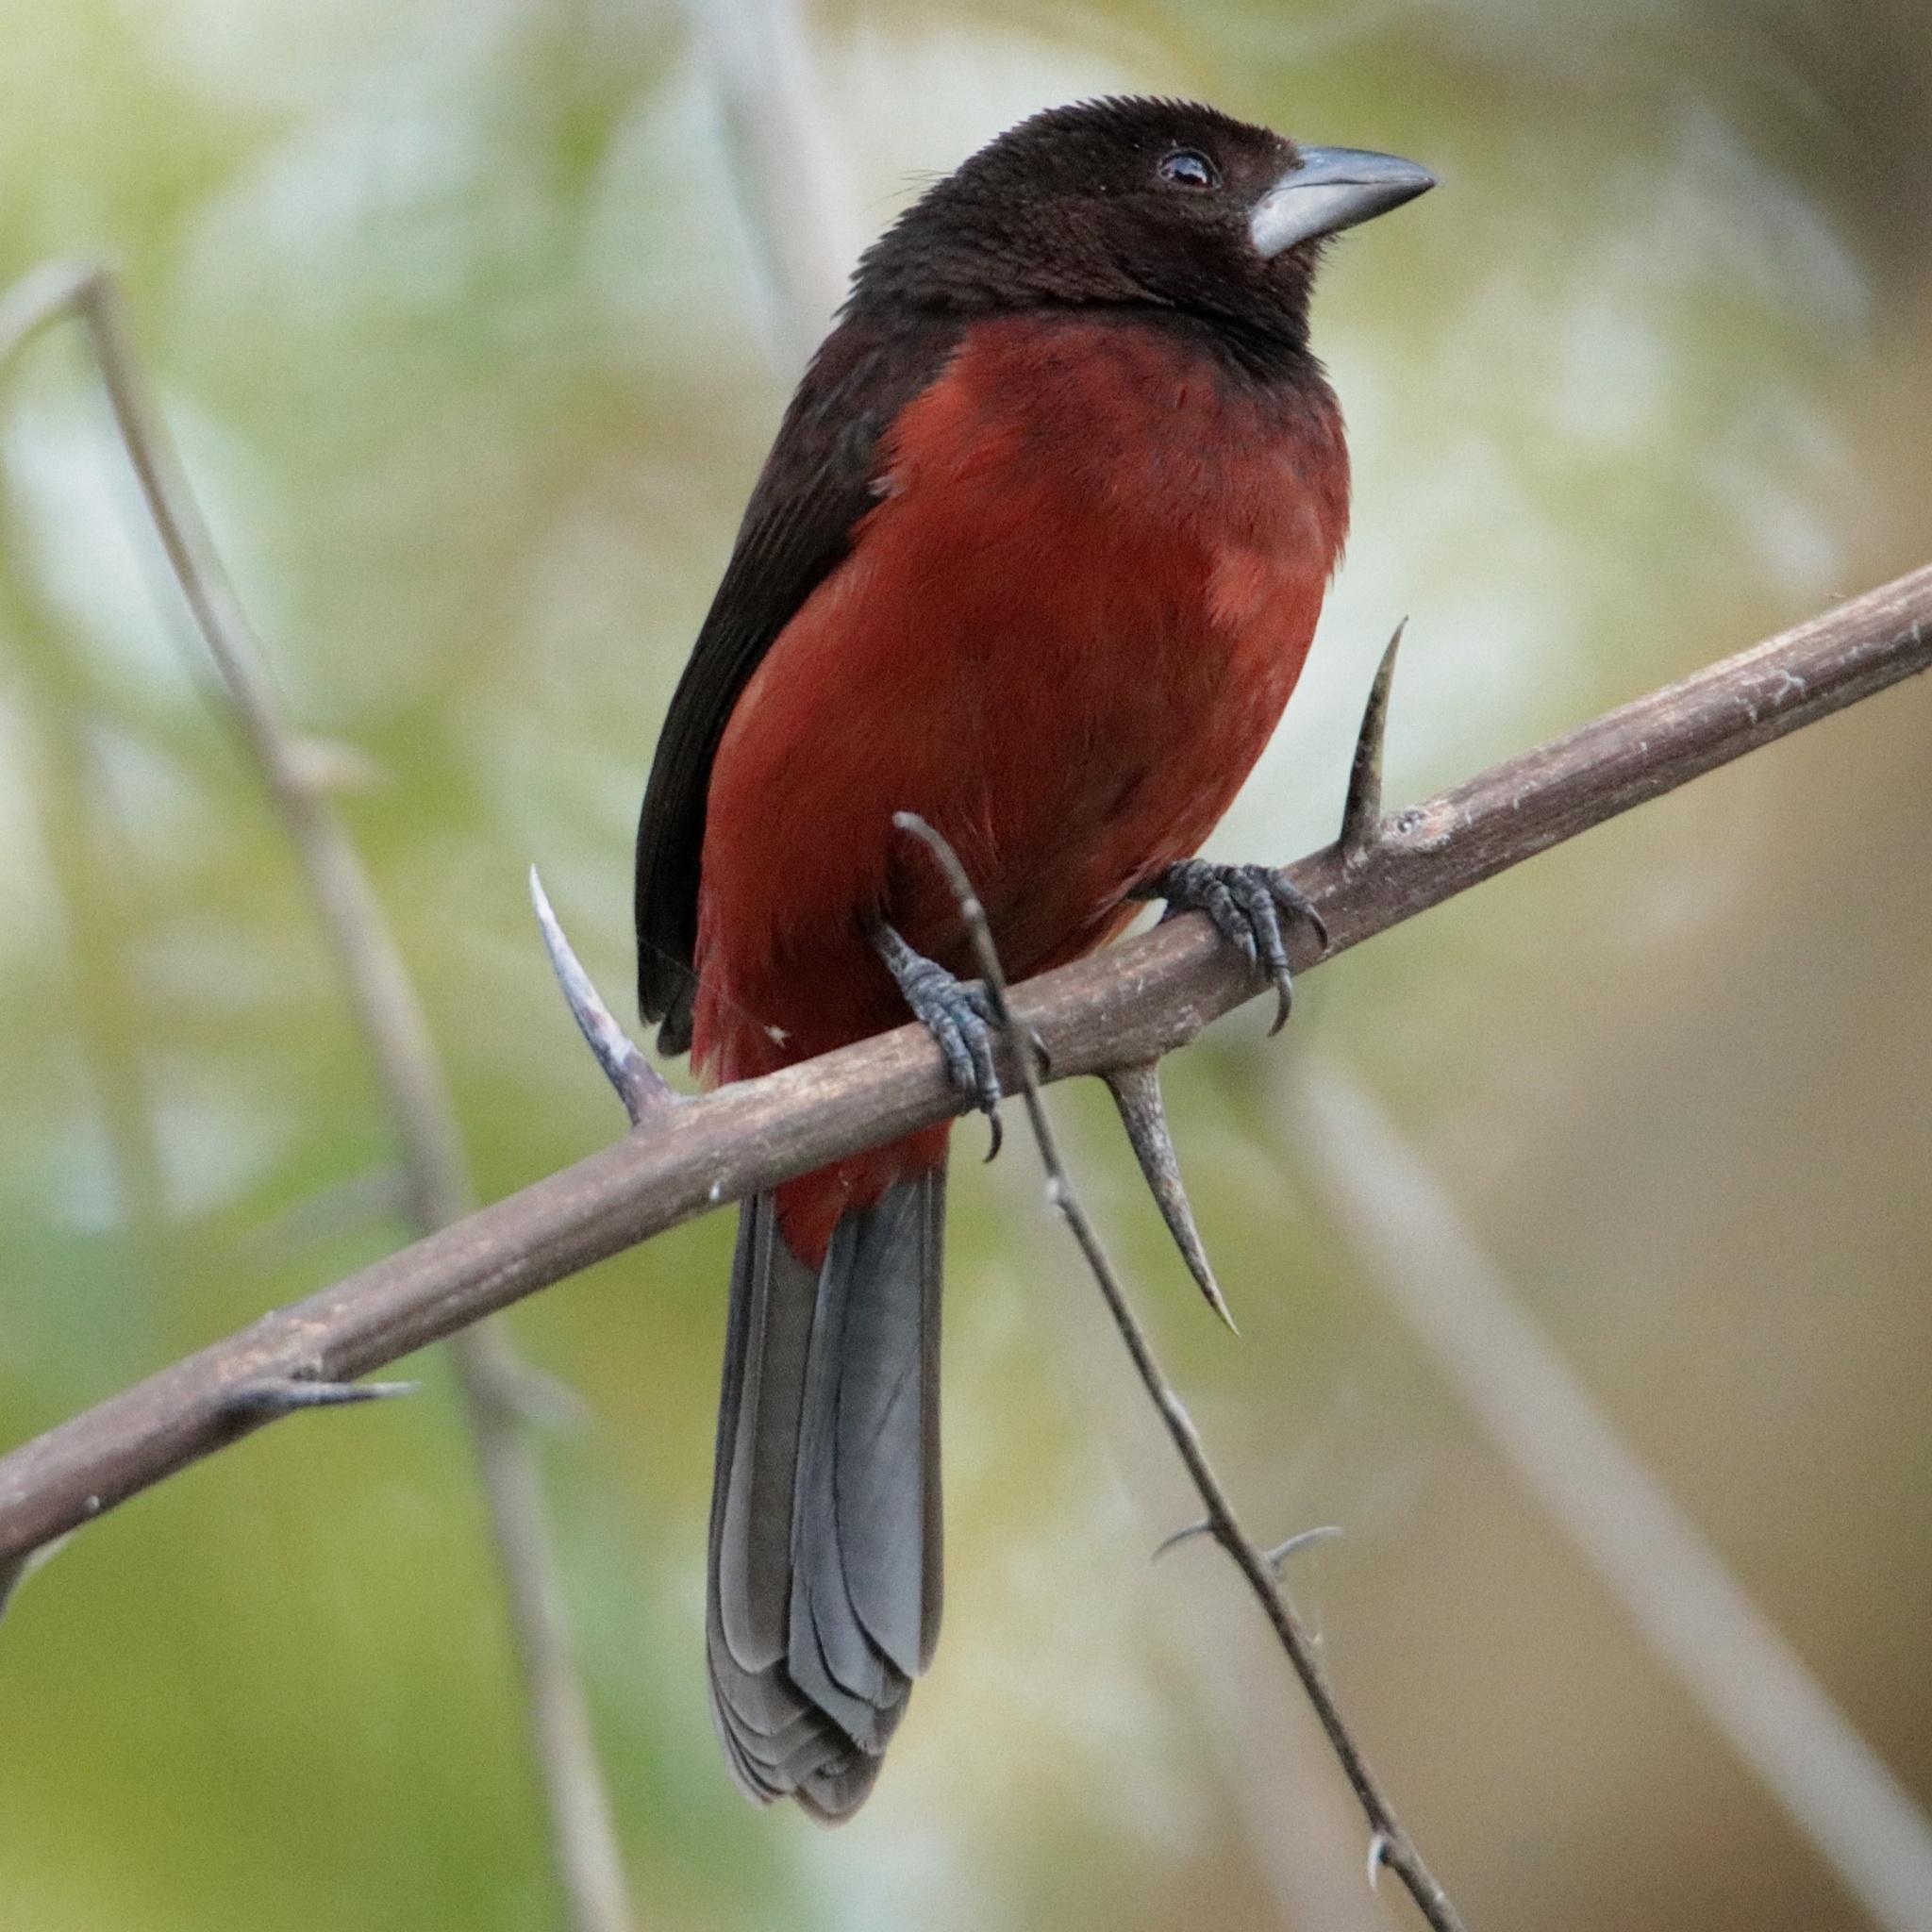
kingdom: Animalia
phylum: Chordata
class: Aves
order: Passeriformes
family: Thraupidae
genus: Ramphocelus
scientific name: Ramphocelus dimidiatus
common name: Crimson-backed tanager
